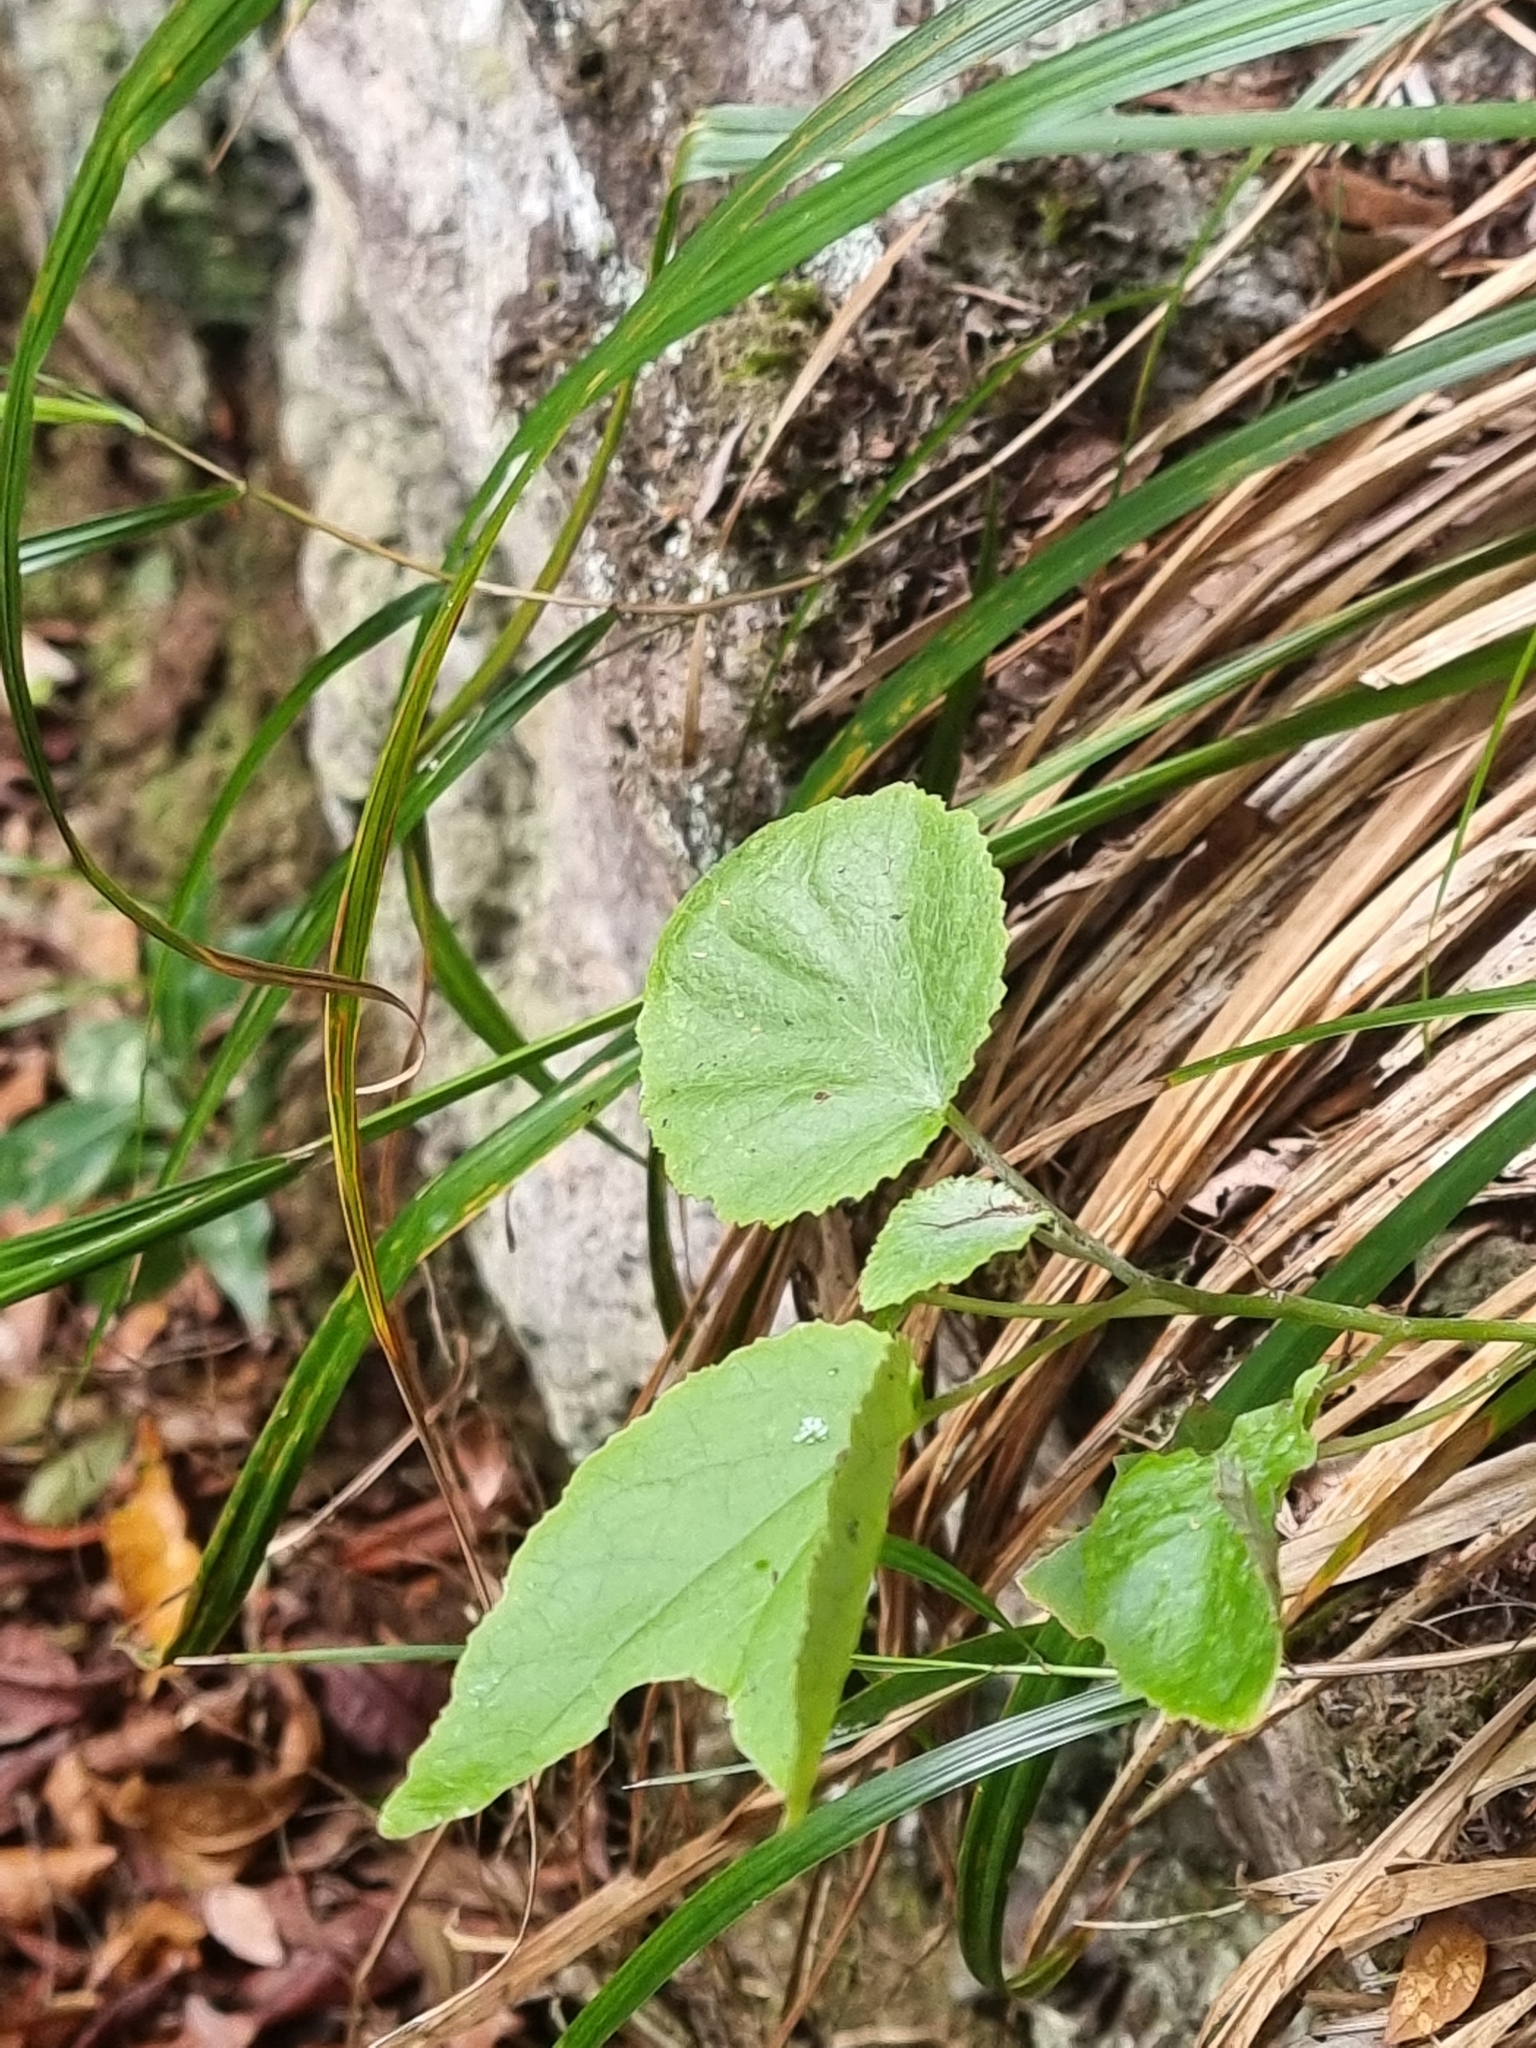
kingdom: Plantae
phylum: Tracheophyta
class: Magnoliopsida
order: Asterales
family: Asteraceae
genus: Pericallis
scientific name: Pericallis aurita
